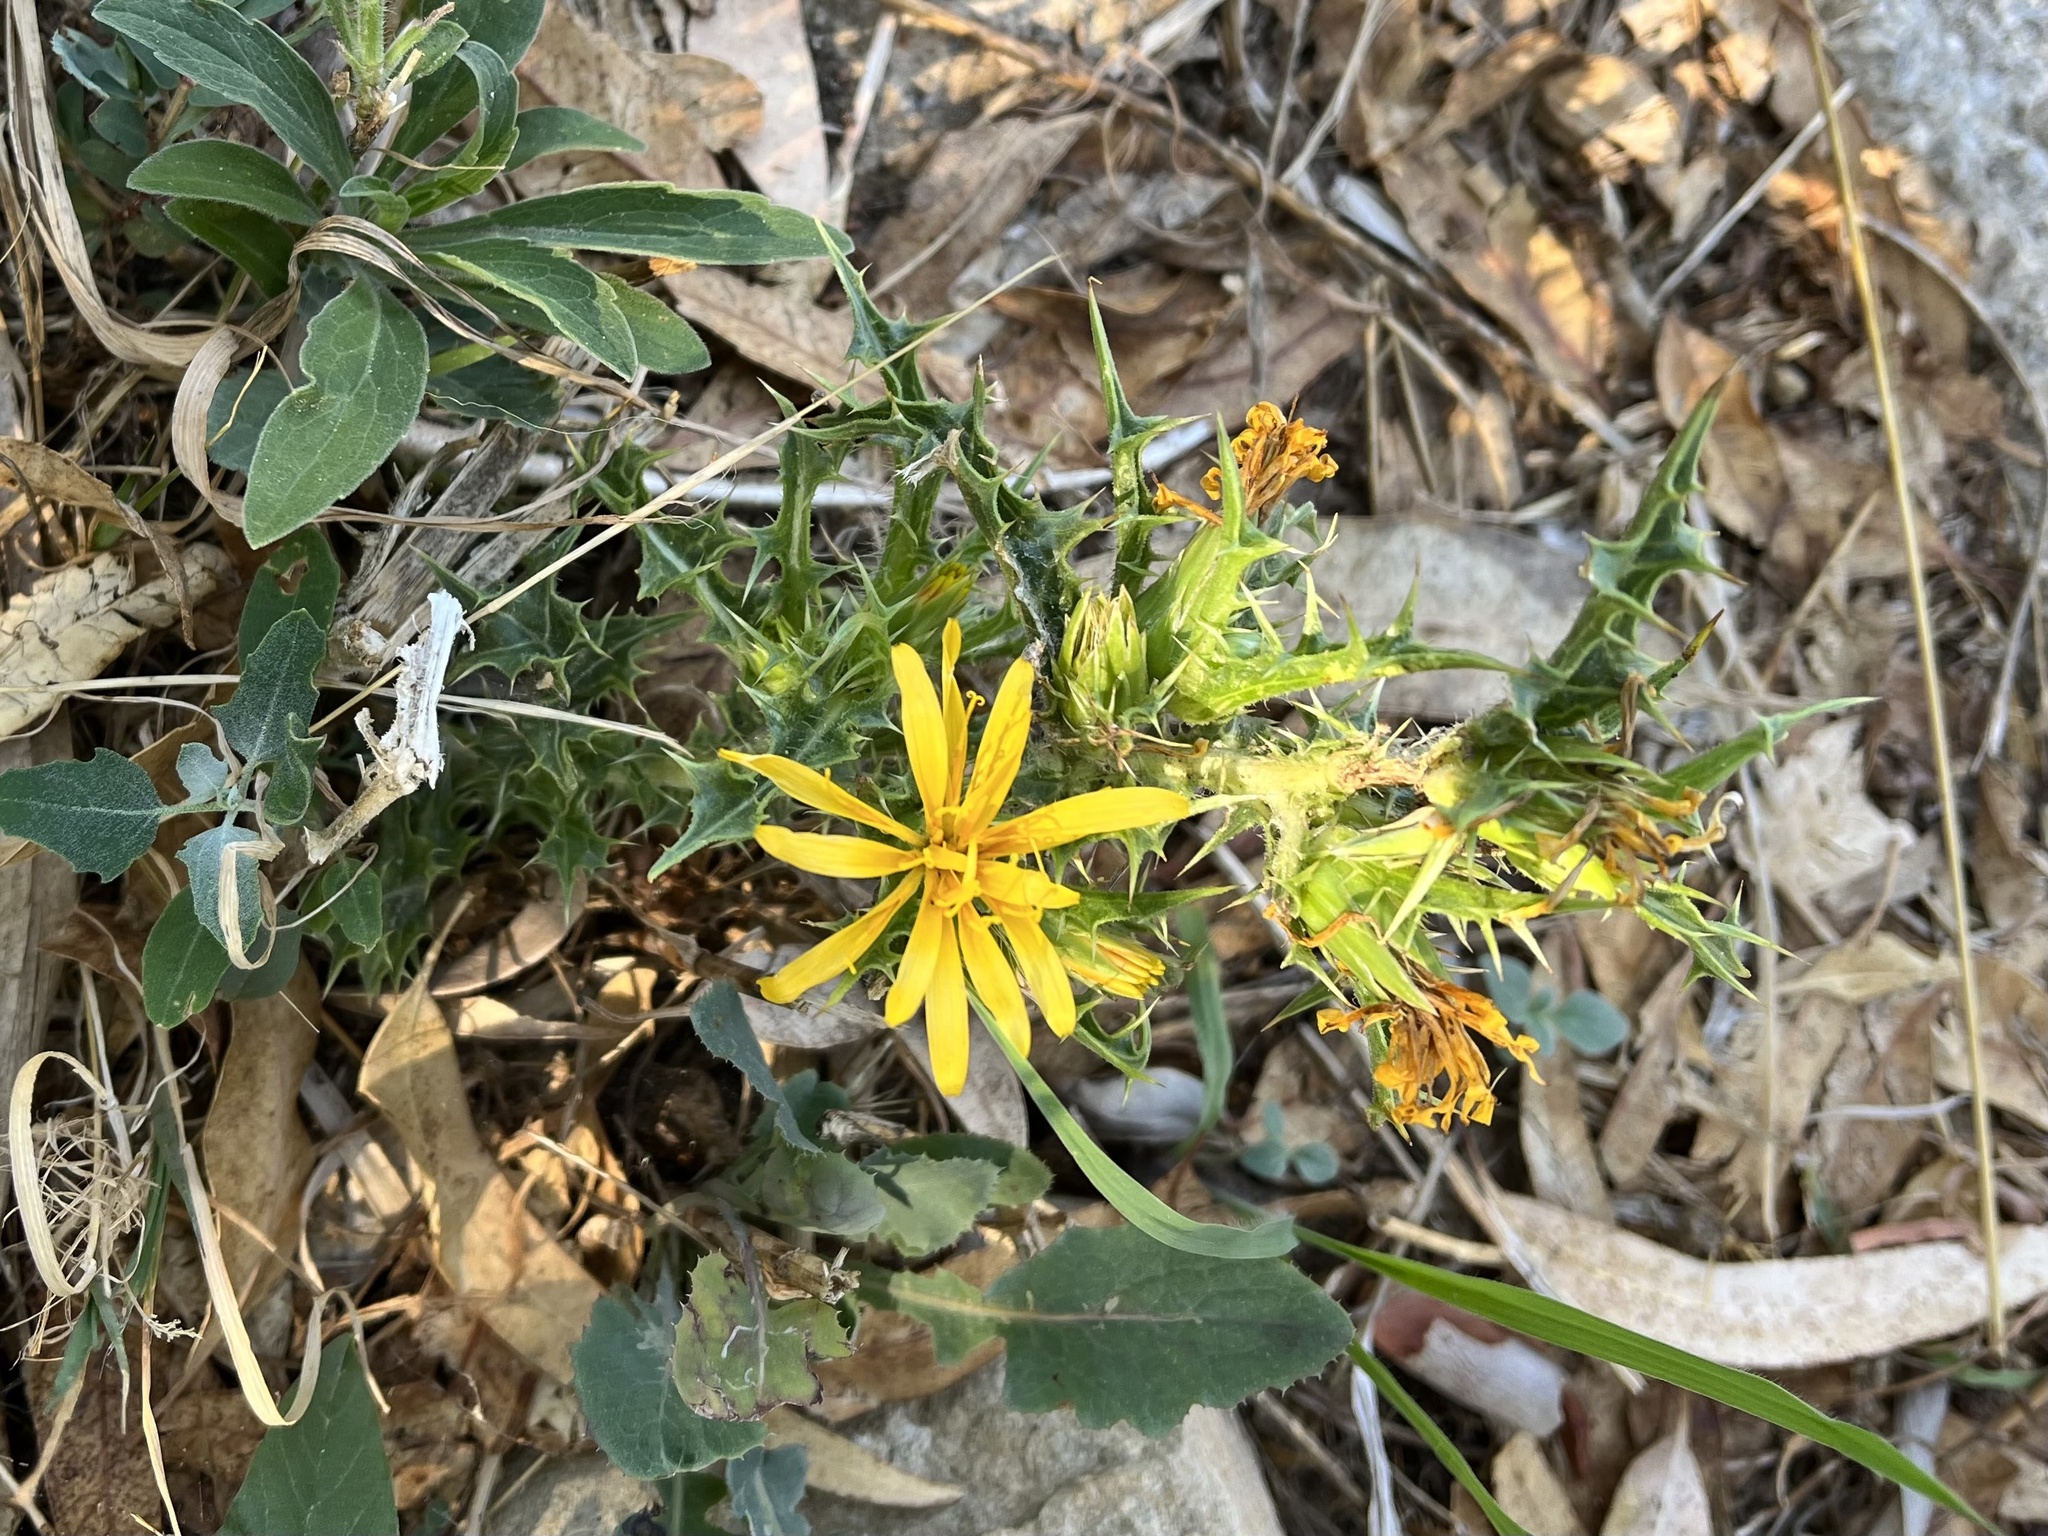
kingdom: Plantae
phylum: Tracheophyta
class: Magnoliopsida
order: Asterales
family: Asteraceae
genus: Scolymus
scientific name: Scolymus hispanicus
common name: Golden thistle
